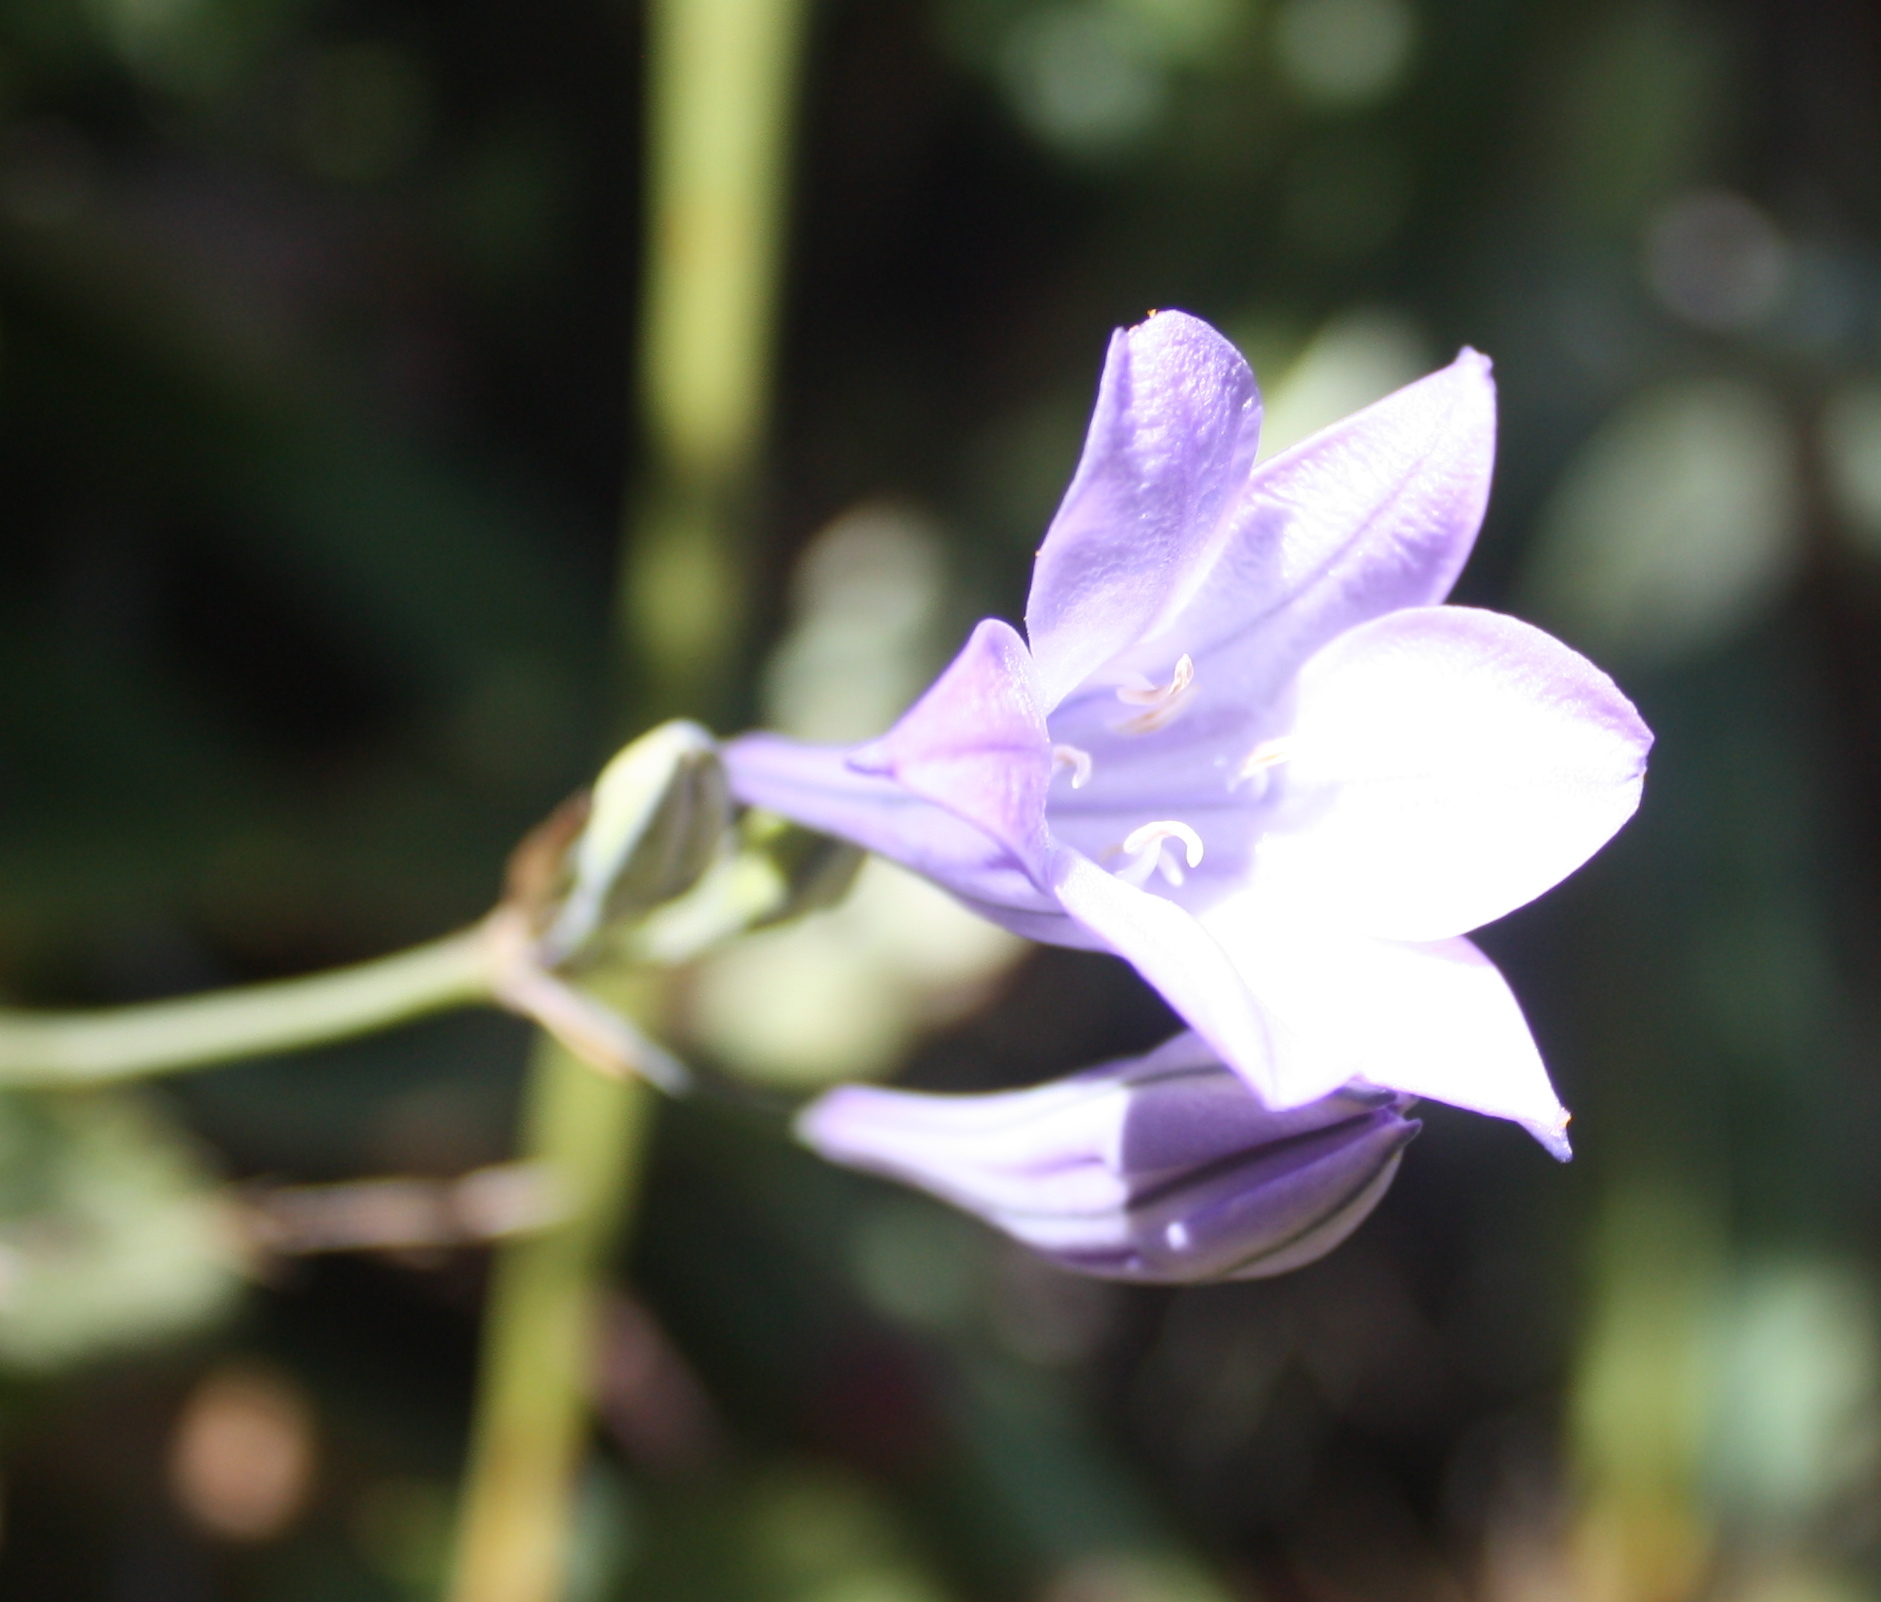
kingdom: Plantae
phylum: Tracheophyta
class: Liliopsida
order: Asparagales
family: Asparagaceae
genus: Triteleia
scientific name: Triteleia laxa
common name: Triplet-lily
